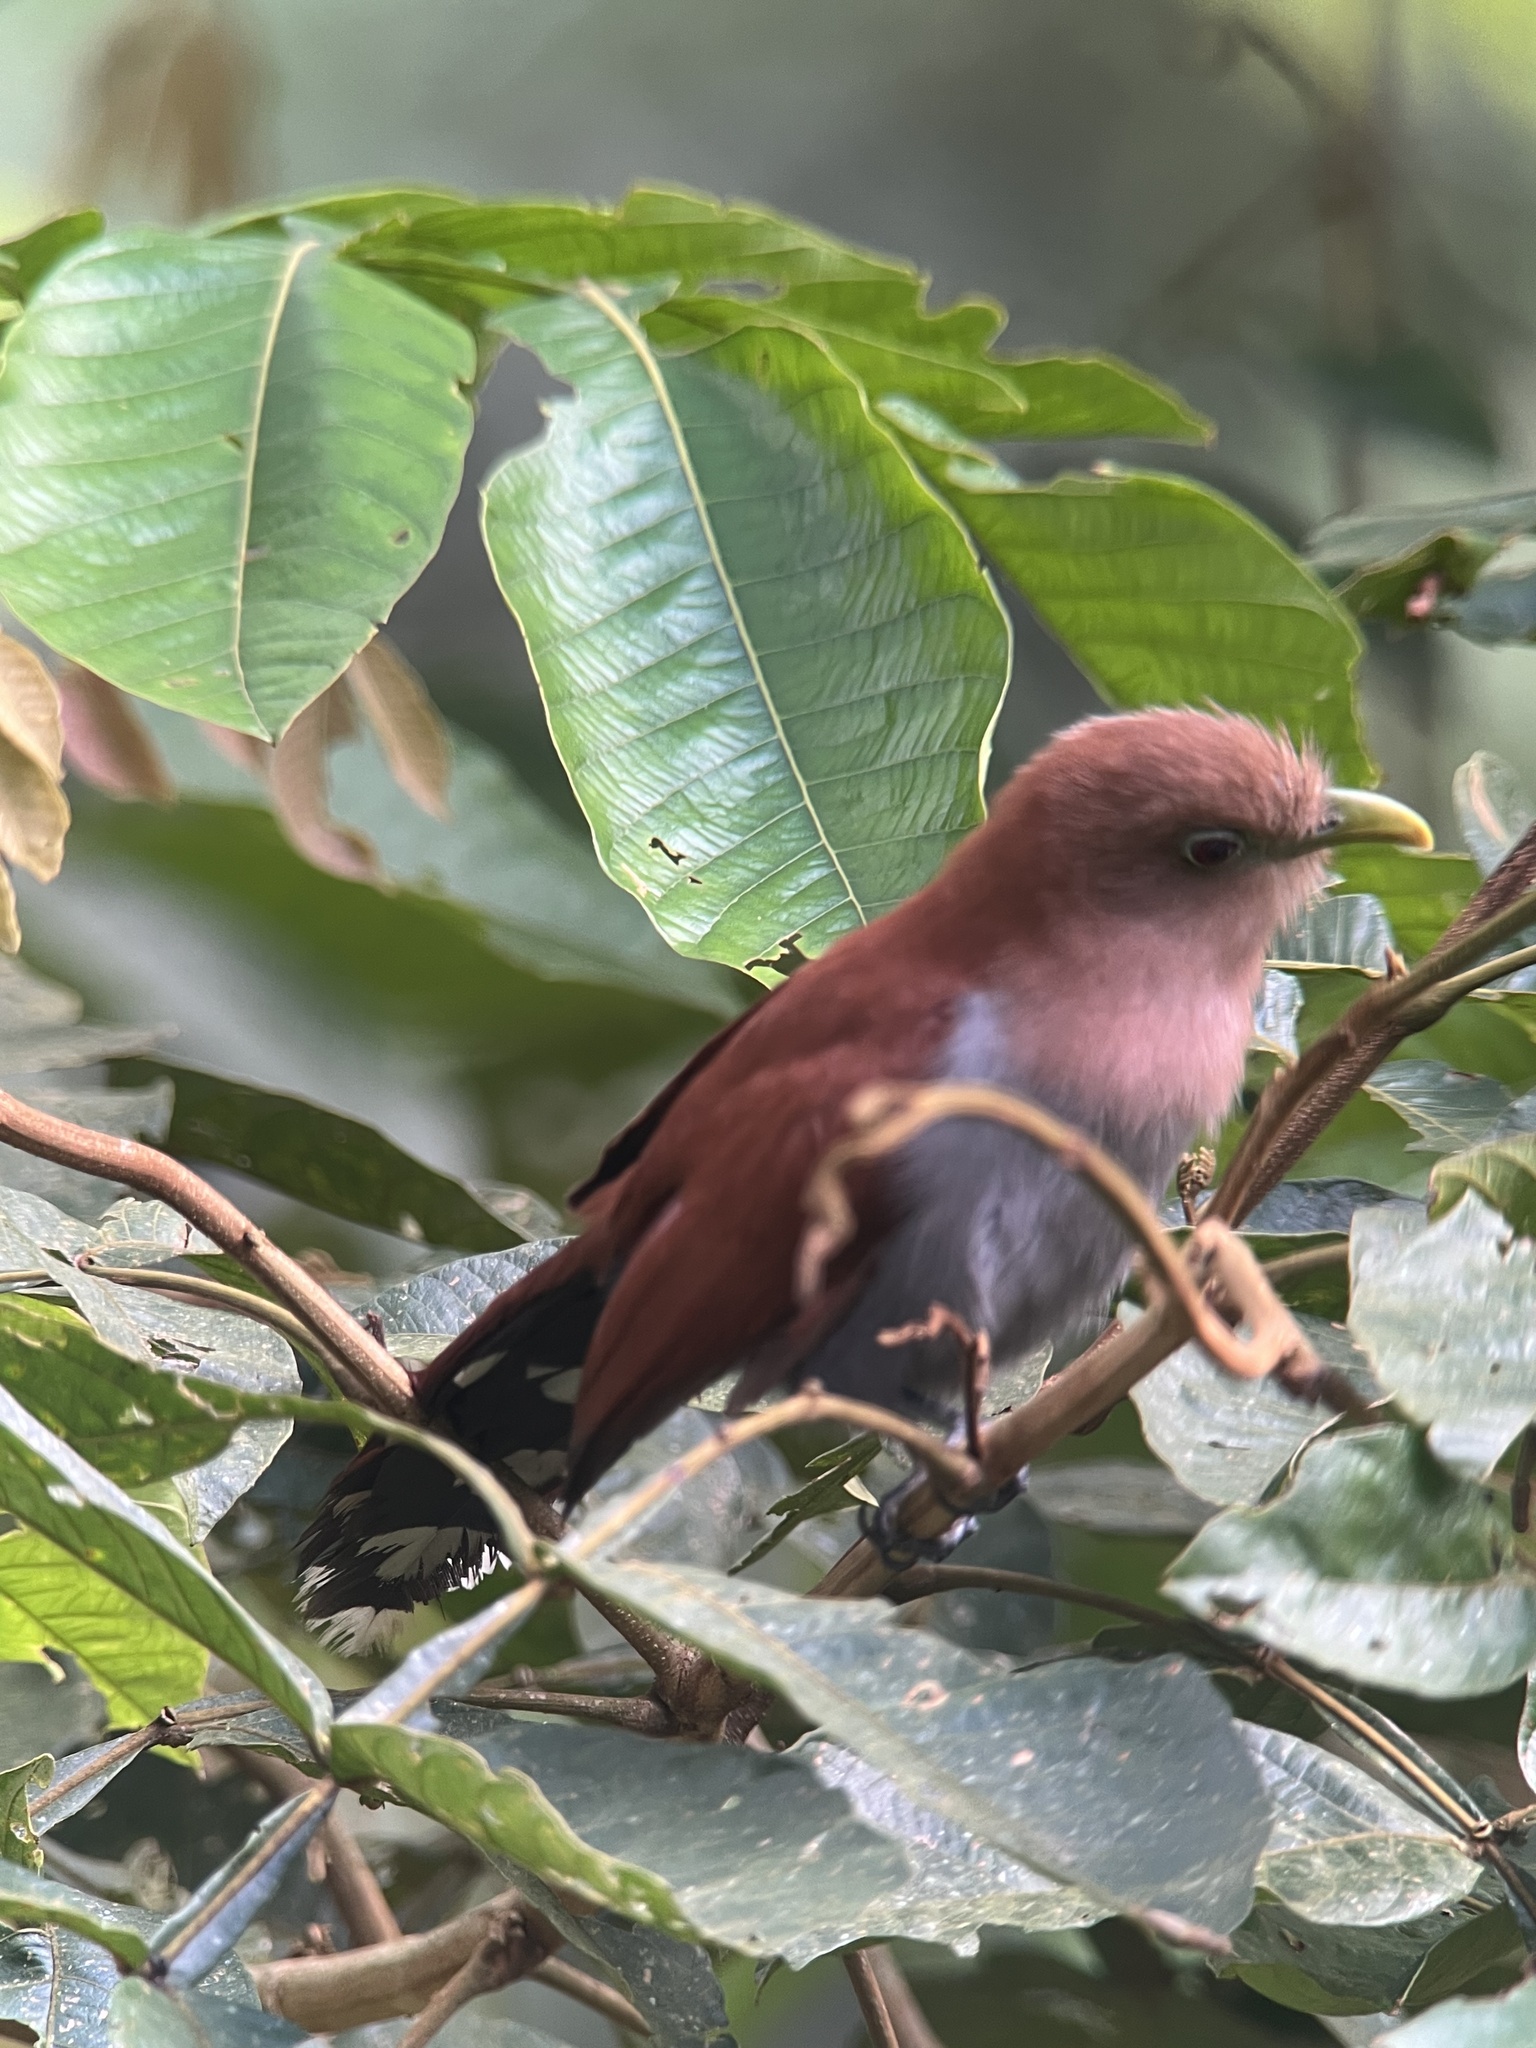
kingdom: Animalia
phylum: Chordata
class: Aves
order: Cuculiformes
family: Cuculidae
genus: Piaya
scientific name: Piaya cayana
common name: Squirrel cuckoo
